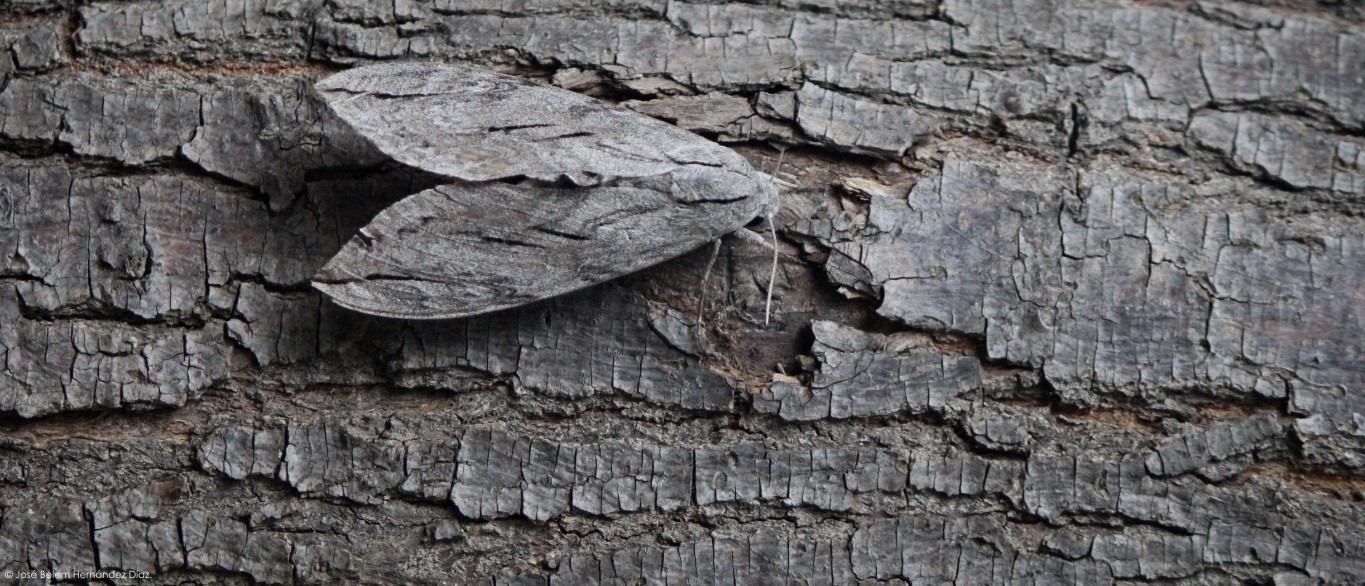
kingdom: Animalia
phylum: Arthropoda
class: Insecta
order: Lepidoptera
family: Sphingidae
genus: Sphinx
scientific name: Sphinx leucophaeata
